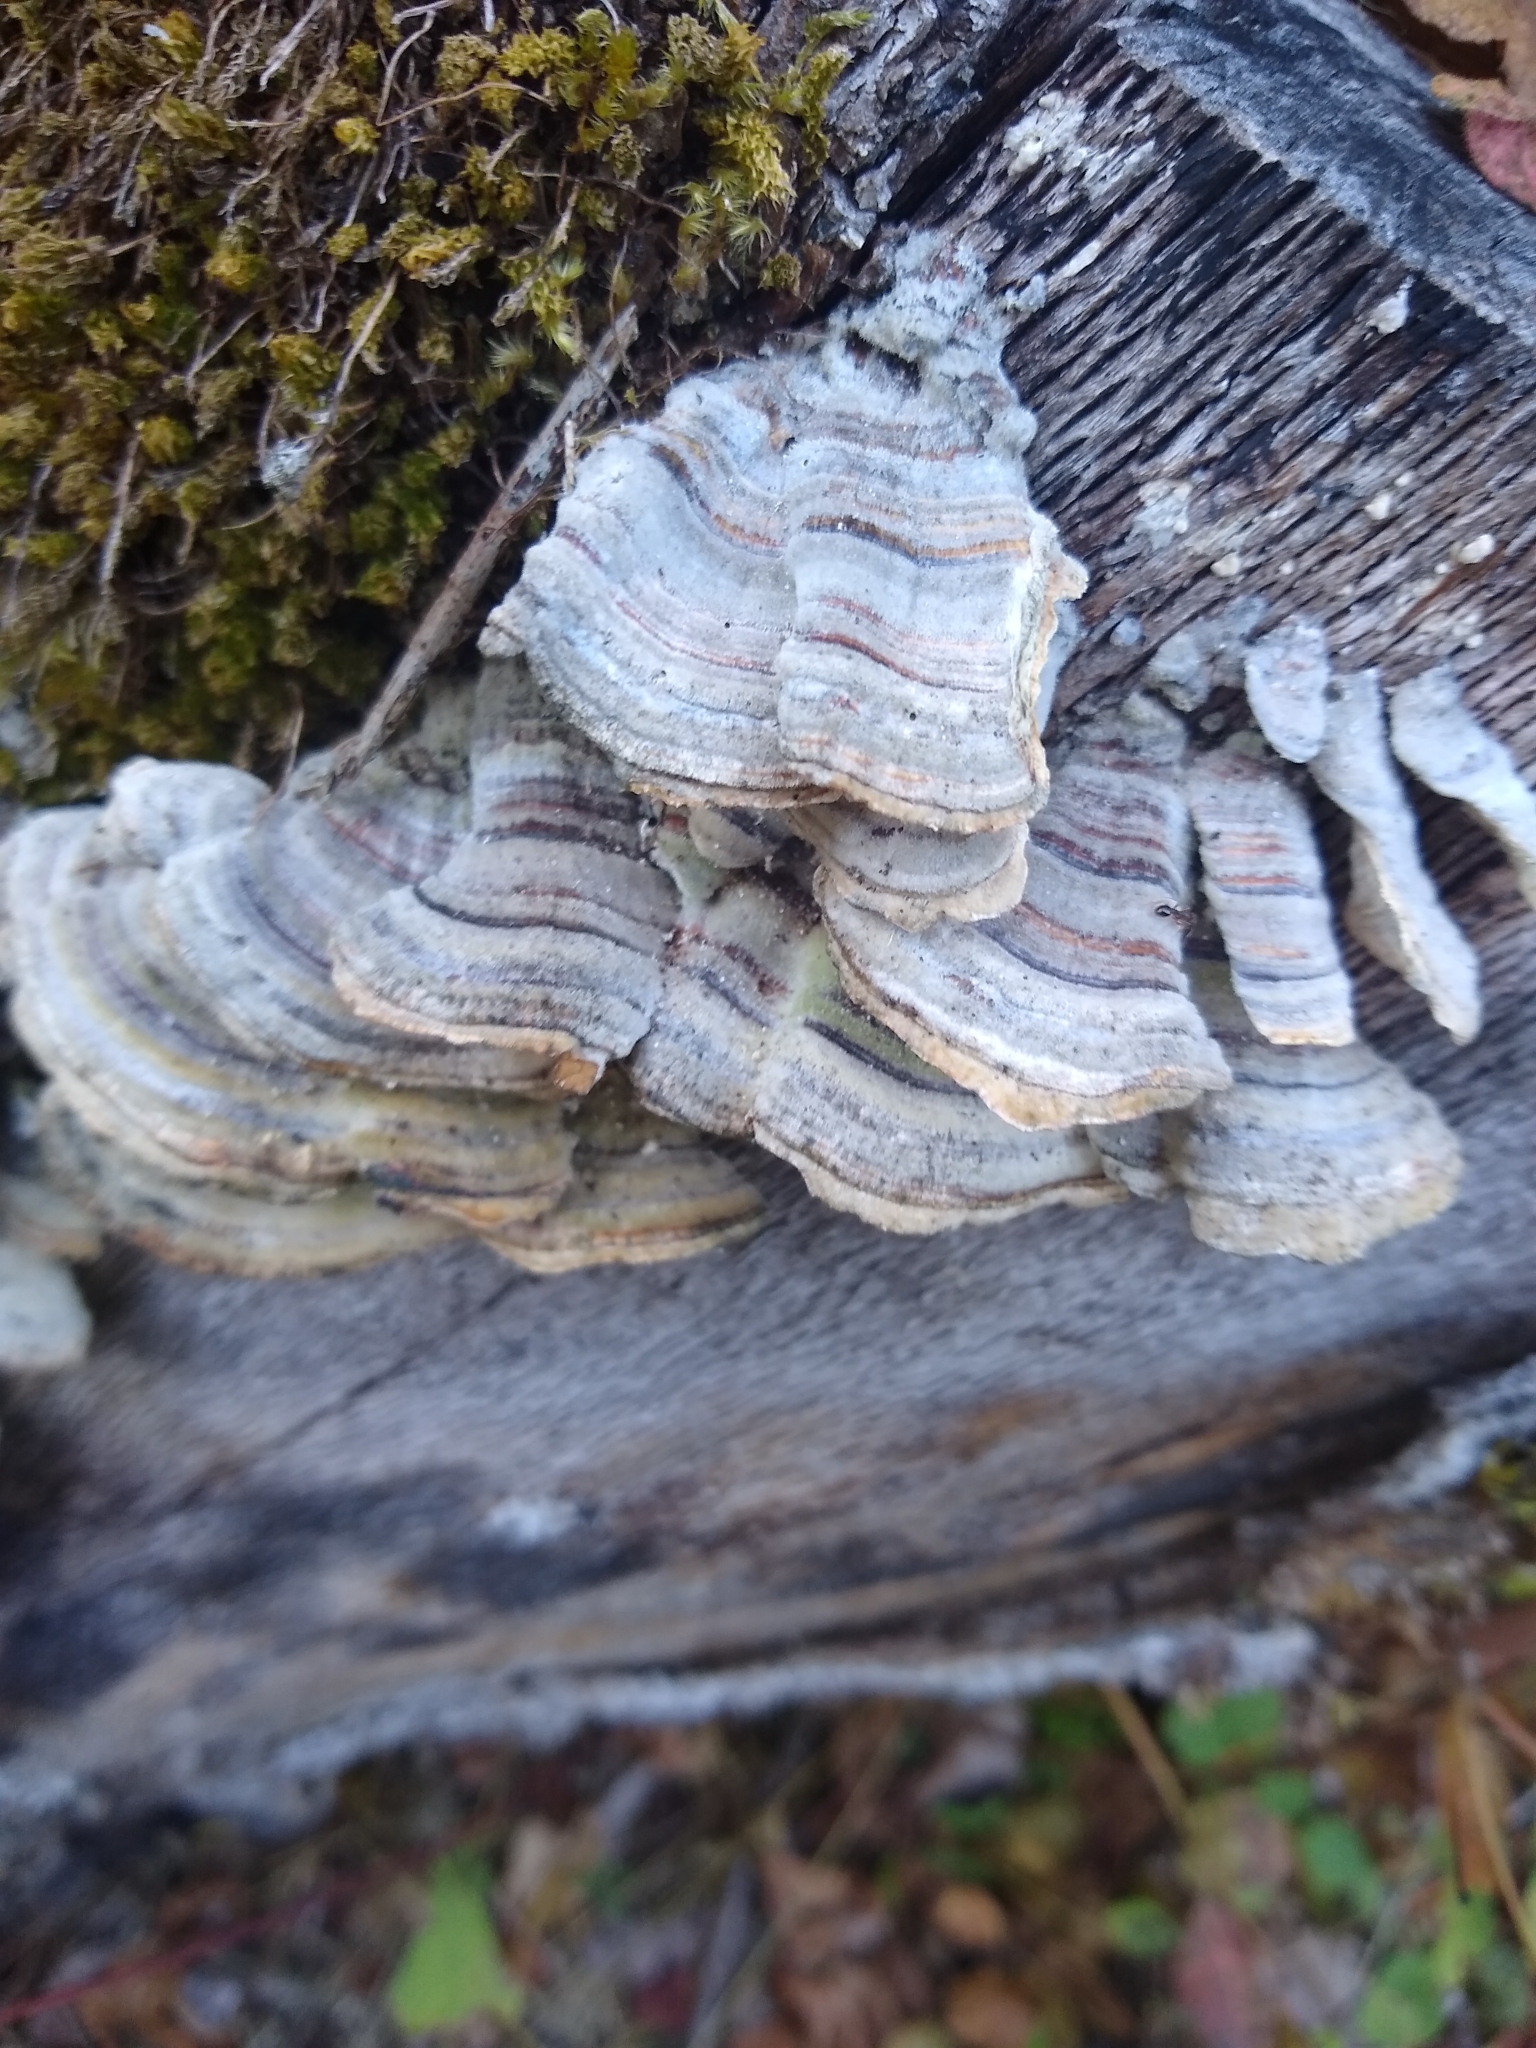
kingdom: Fungi
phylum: Basidiomycota
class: Agaricomycetes
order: Polyporales
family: Polyporaceae
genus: Trametes
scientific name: Trametes
